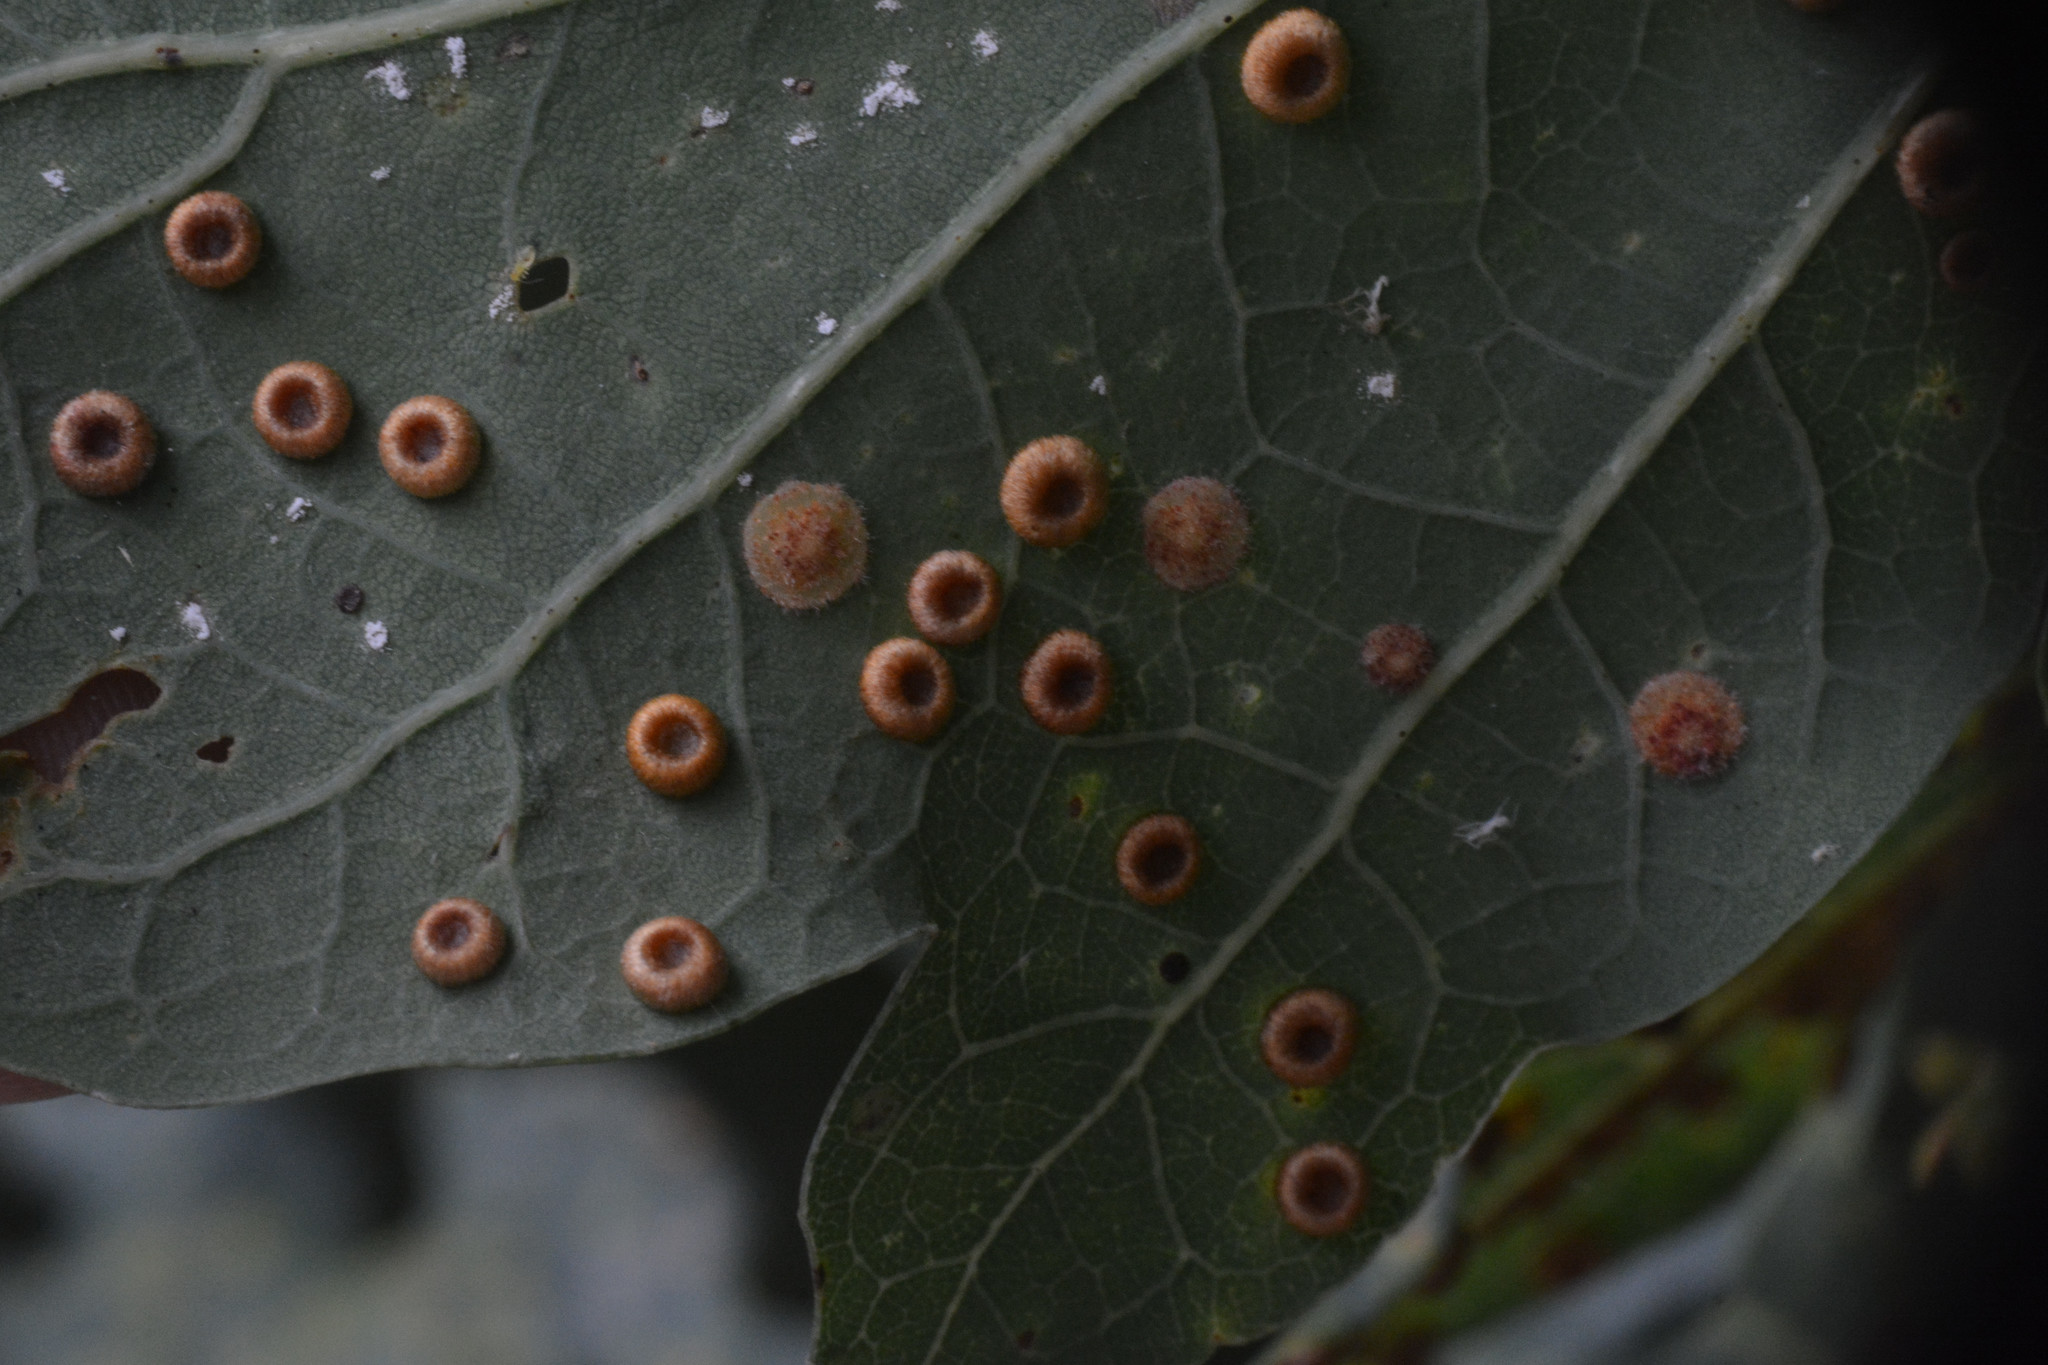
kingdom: Animalia
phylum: Arthropoda
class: Insecta
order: Hymenoptera
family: Cynipidae
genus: Neuroterus
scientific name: Neuroterus numismalis
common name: Silk-button spangle gall
